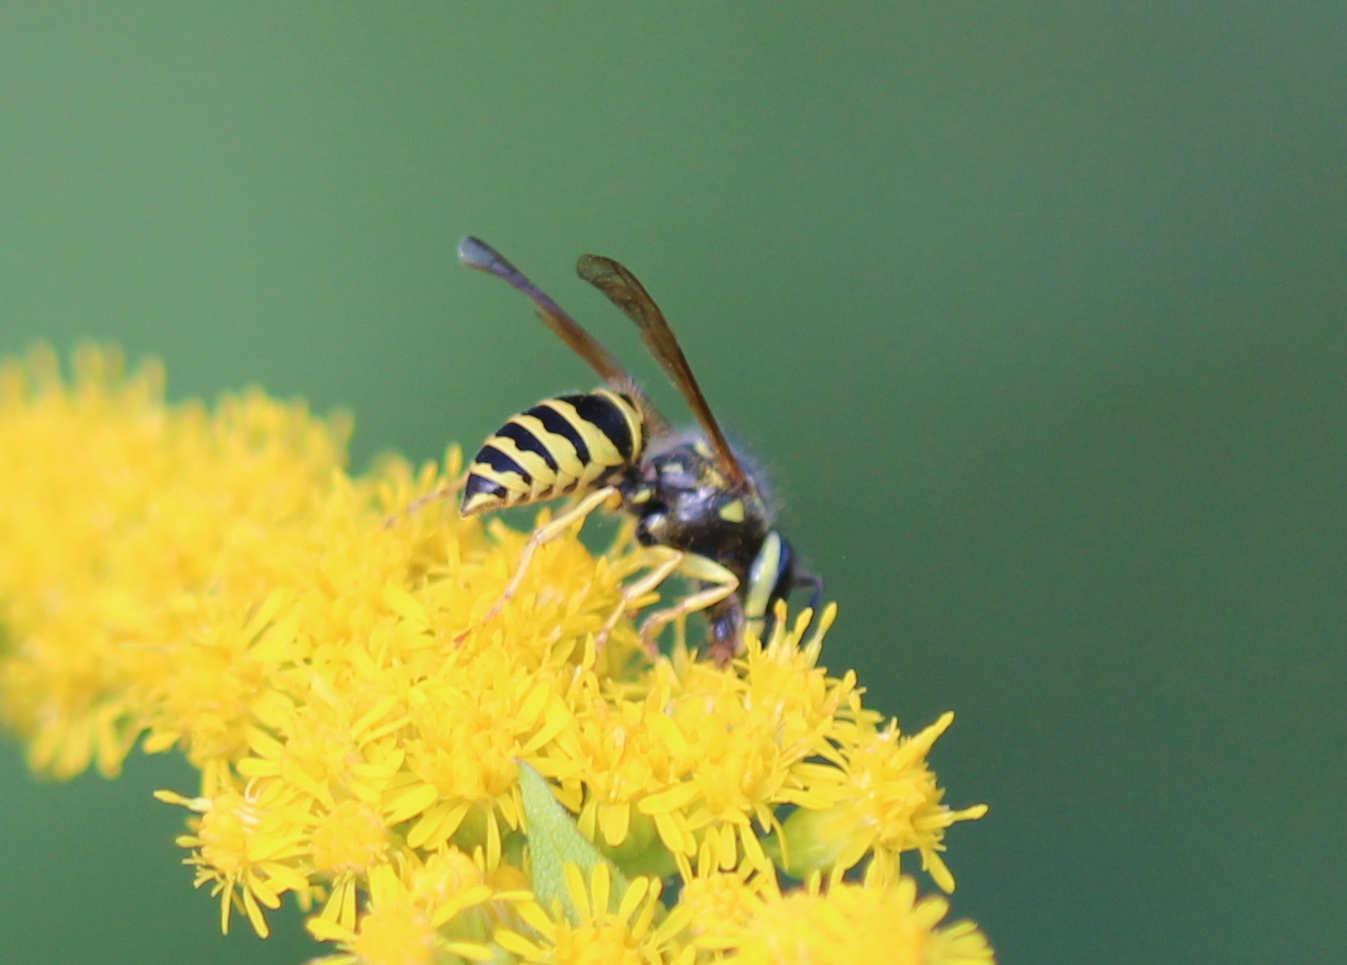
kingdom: Animalia
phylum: Arthropoda
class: Insecta
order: Hymenoptera
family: Vespidae
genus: Vespula
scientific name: Vespula maculifrons
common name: Eastern yellowjacket
